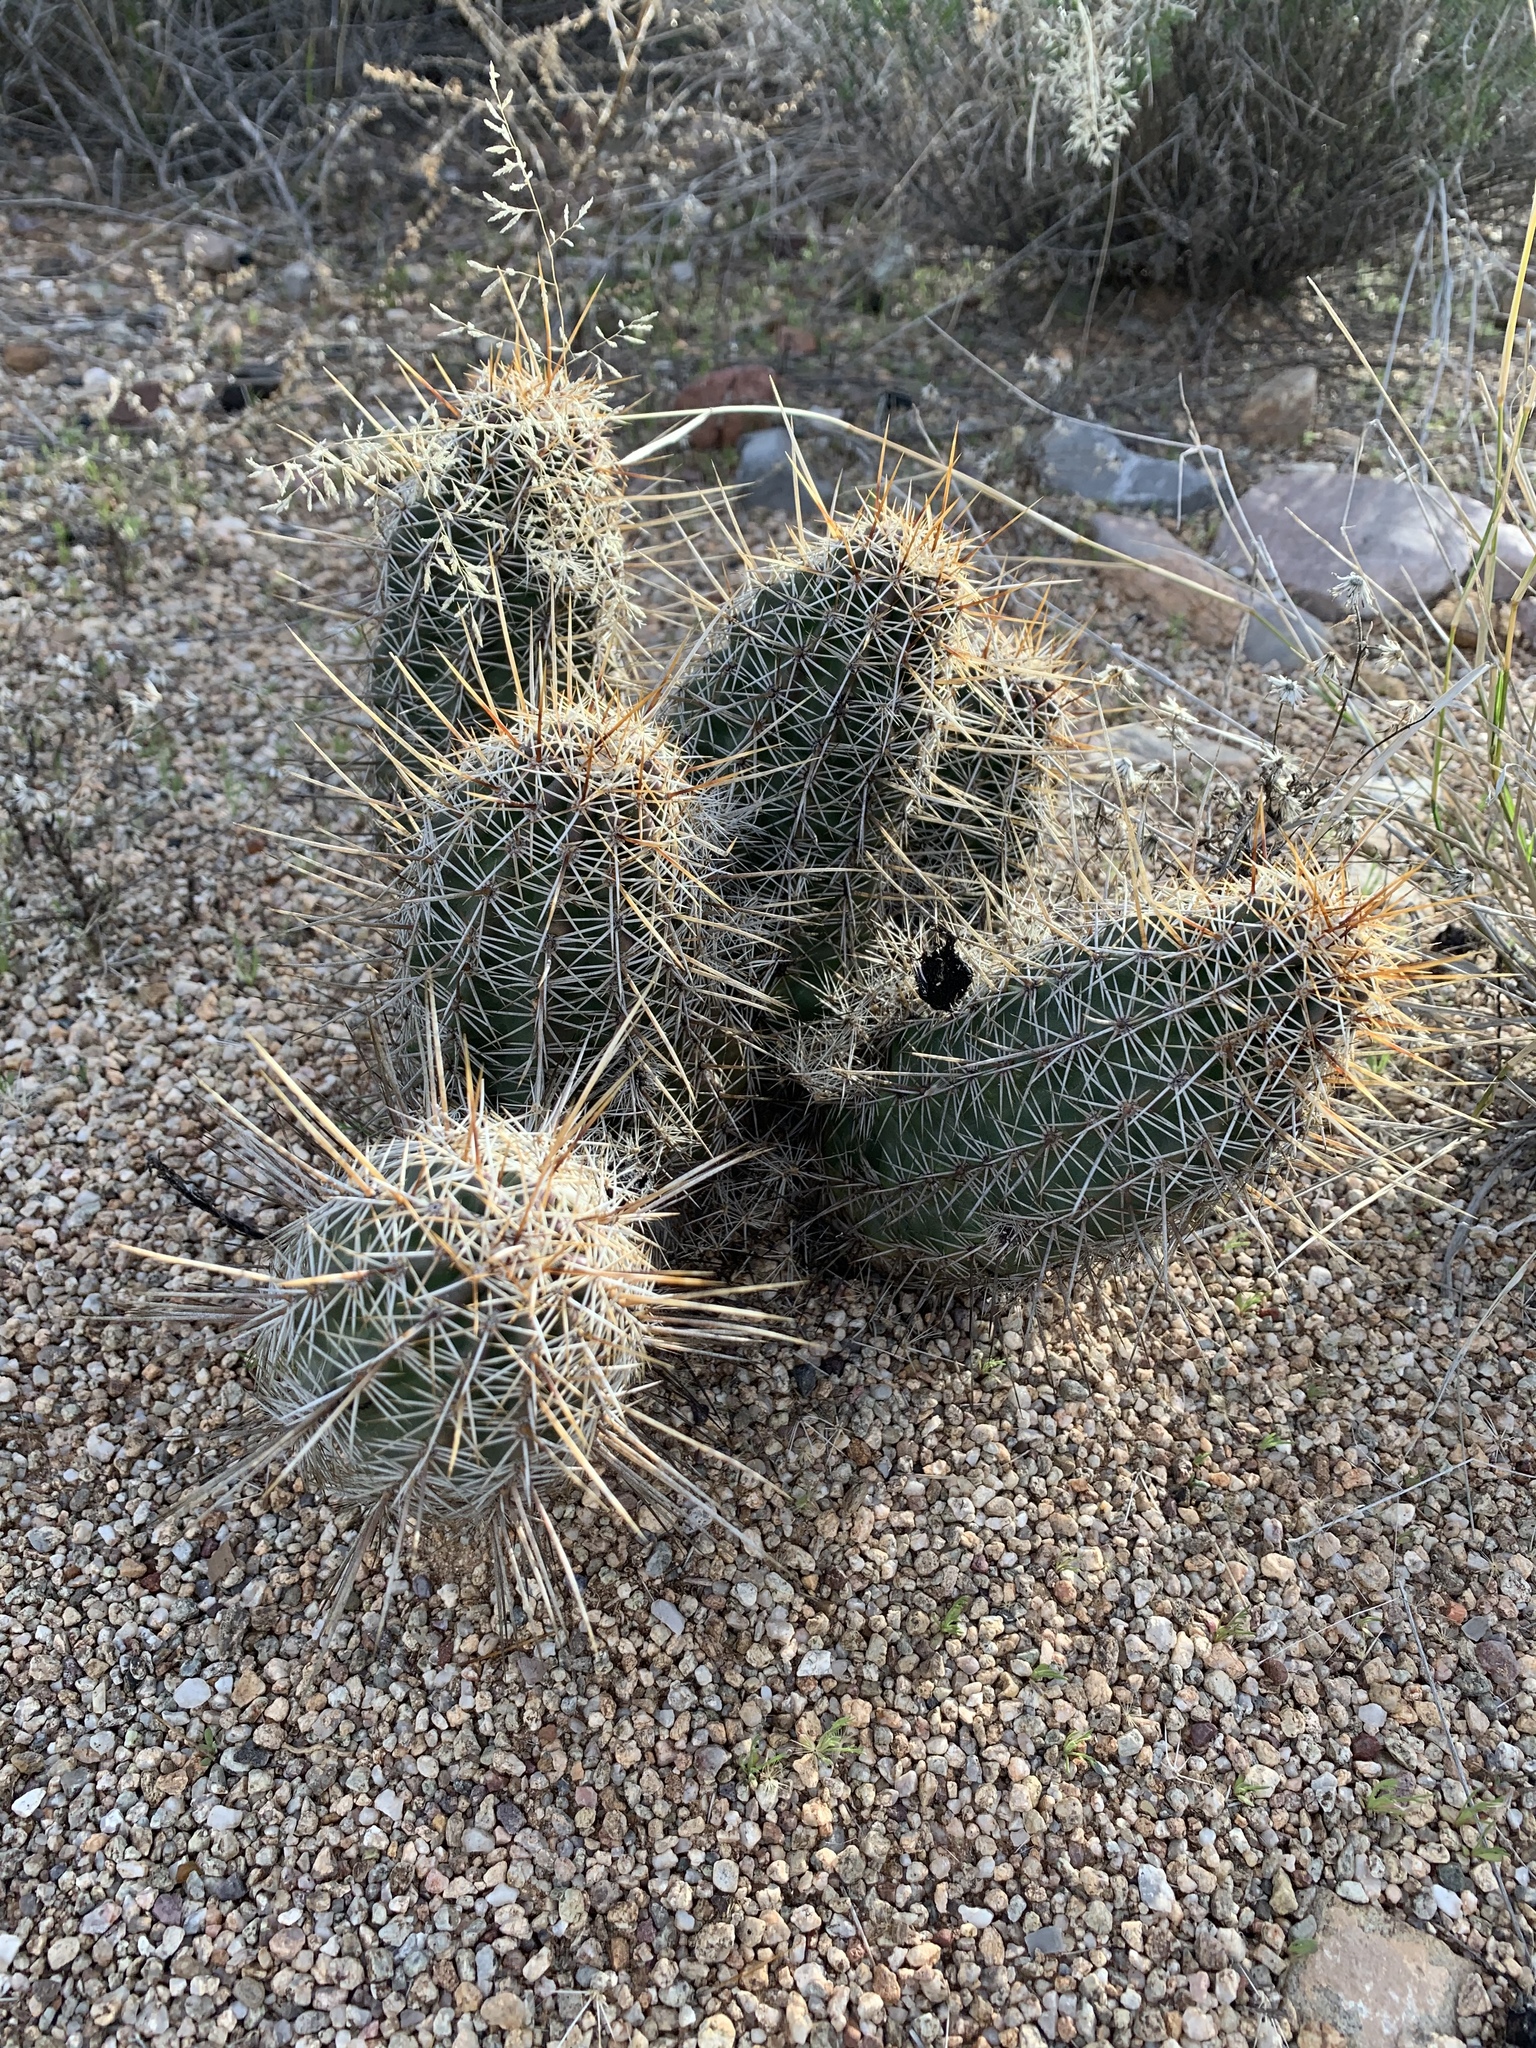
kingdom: Plantae
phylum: Tracheophyta
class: Magnoliopsida
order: Caryophyllales
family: Cactaceae
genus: Echinocereus
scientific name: Echinocereus fasciculatus
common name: Bundle hedgehog
